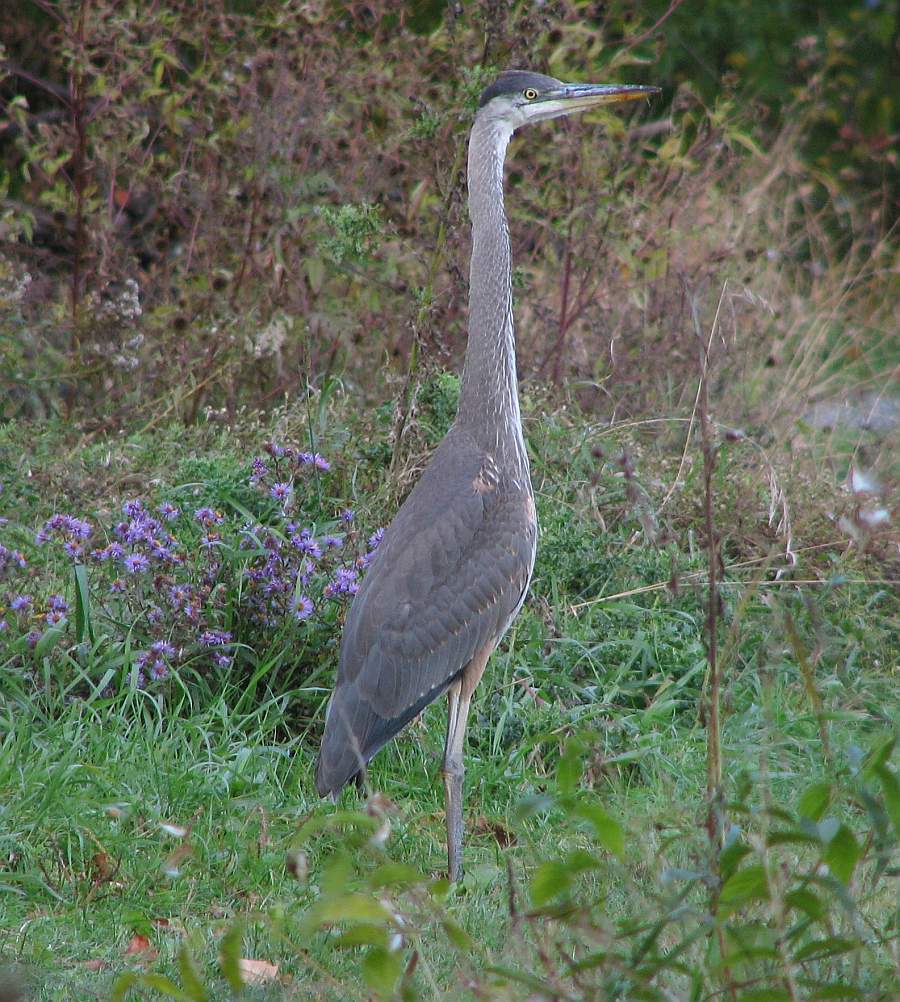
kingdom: Animalia
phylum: Chordata
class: Aves
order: Pelecaniformes
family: Ardeidae
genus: Ardea
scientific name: Ardea herodias
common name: Great blue heron
